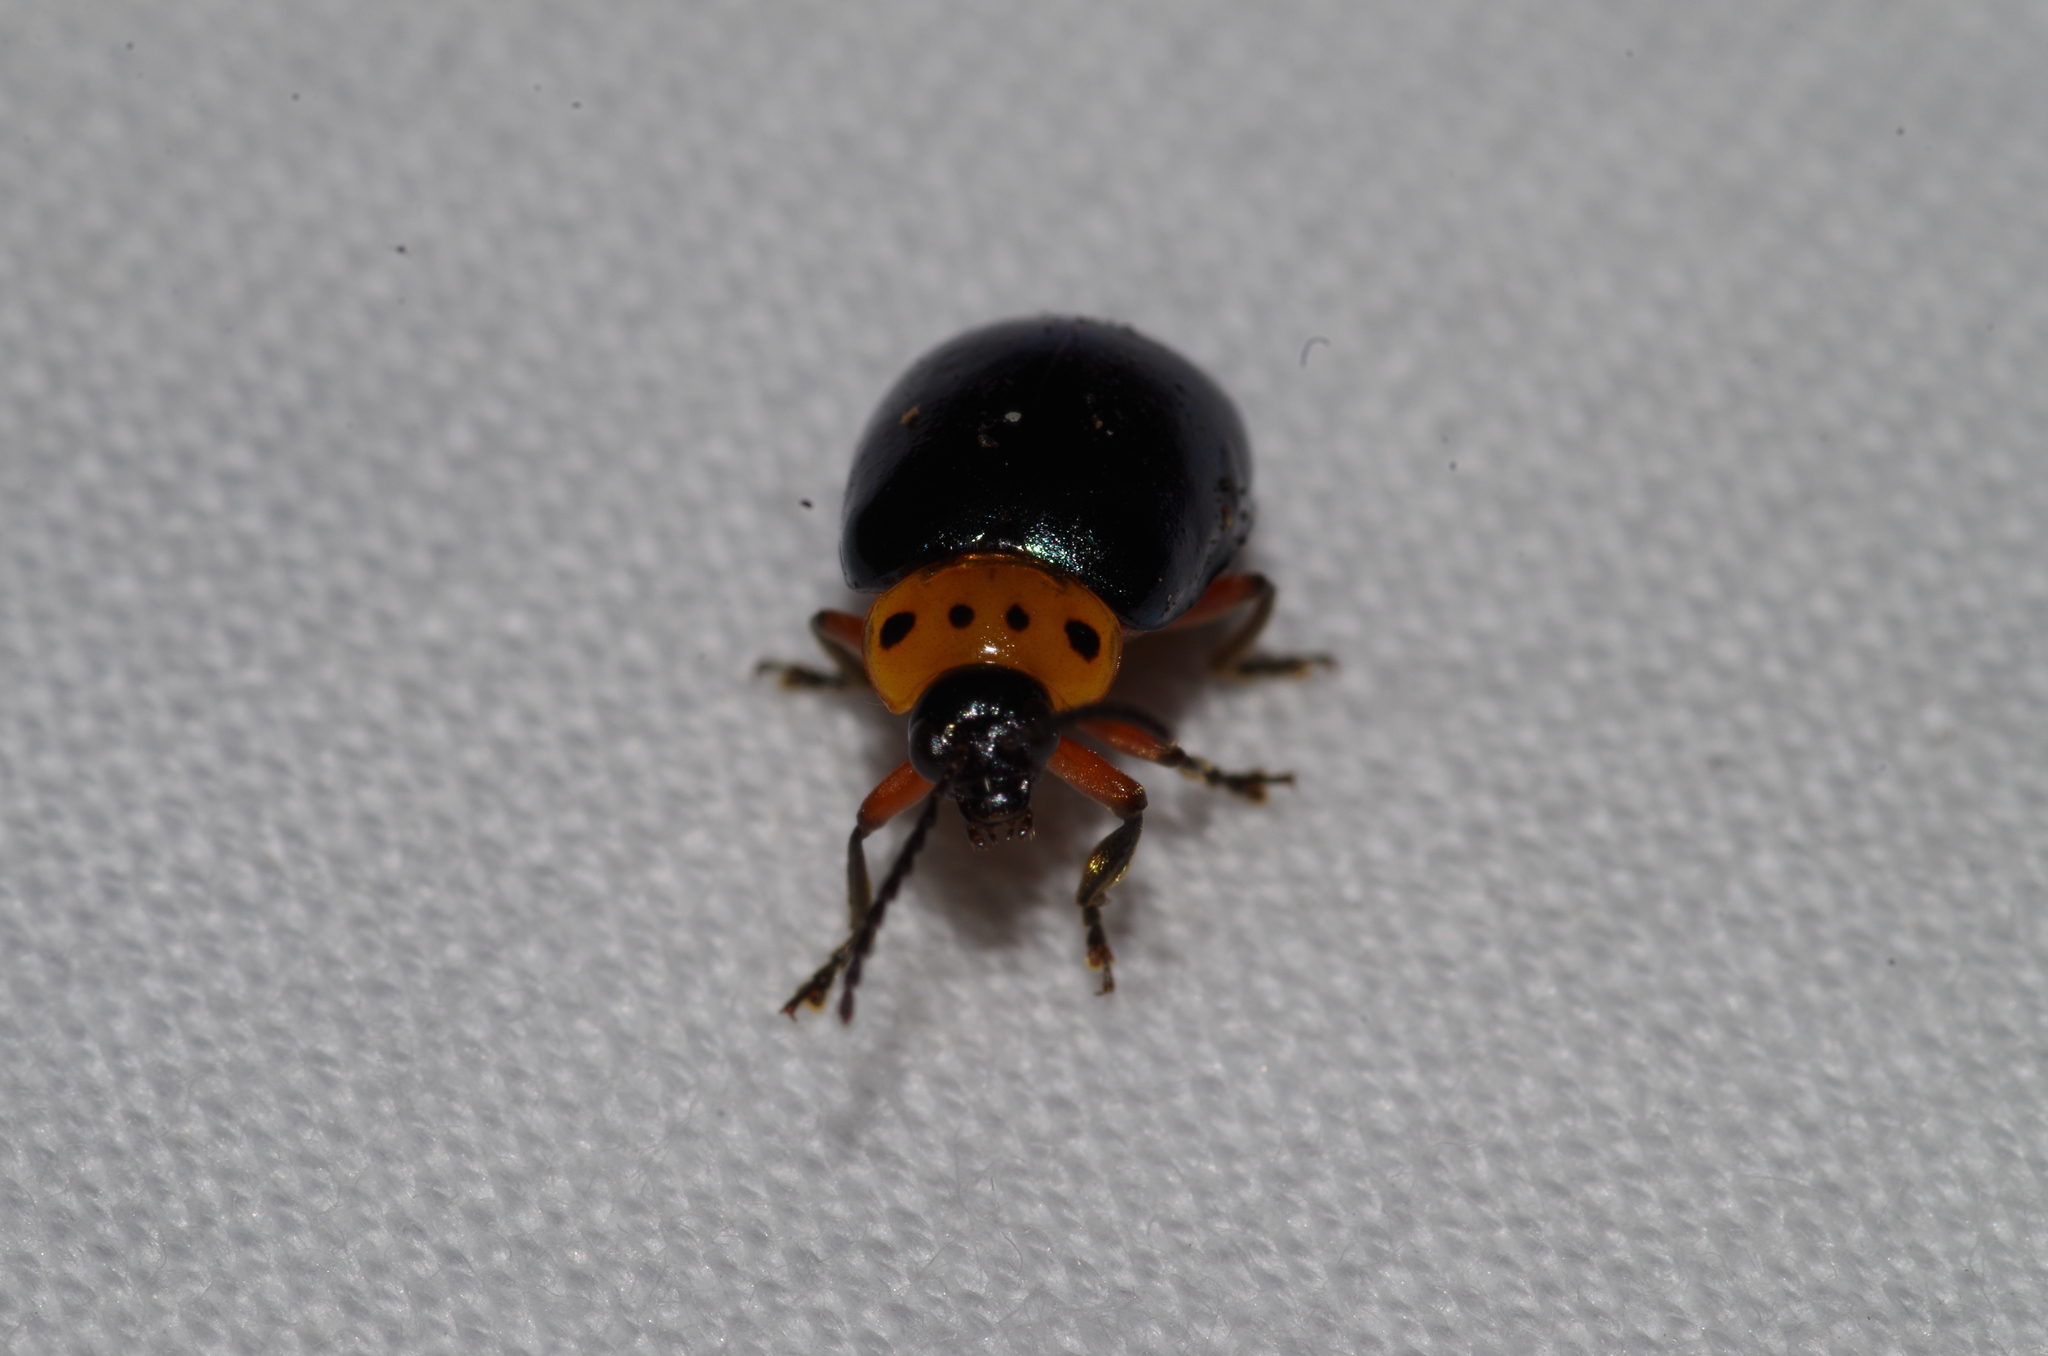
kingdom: Animalia
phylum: Arthropoda
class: Insecta
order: Coleoptera
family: Chrysomelidae
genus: Morphosphaera
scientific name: Morphosphaera caerulea
